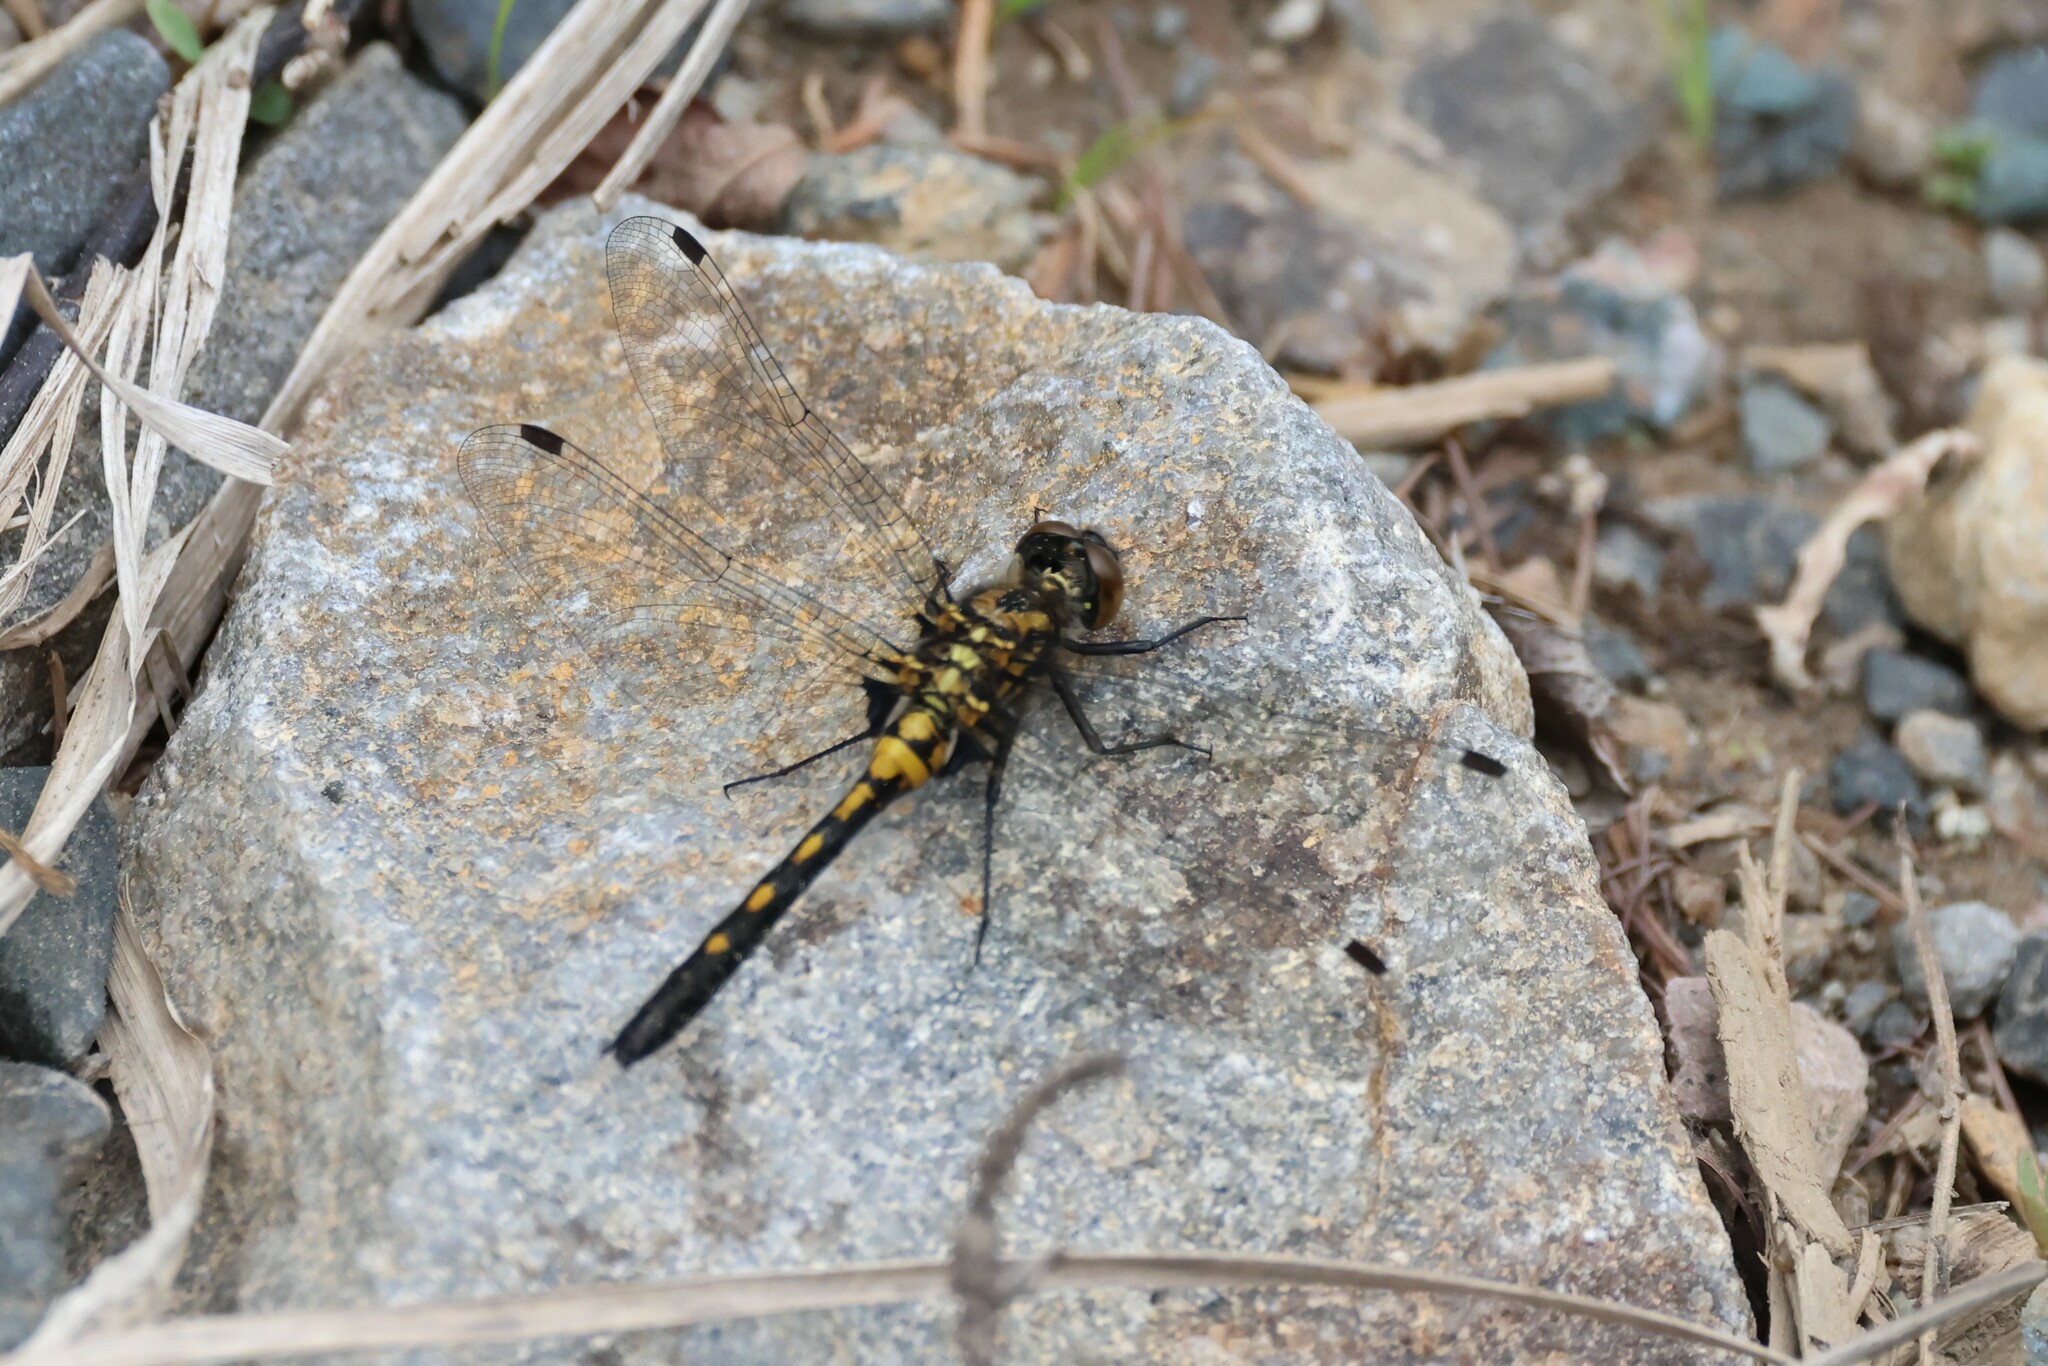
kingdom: Animalia
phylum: Arthropoda
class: Insecta
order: Odonata
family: Libellulidae
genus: Leucorrhinia
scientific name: Leucorrhinia glacialis
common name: Crimson-ringed whiteface
